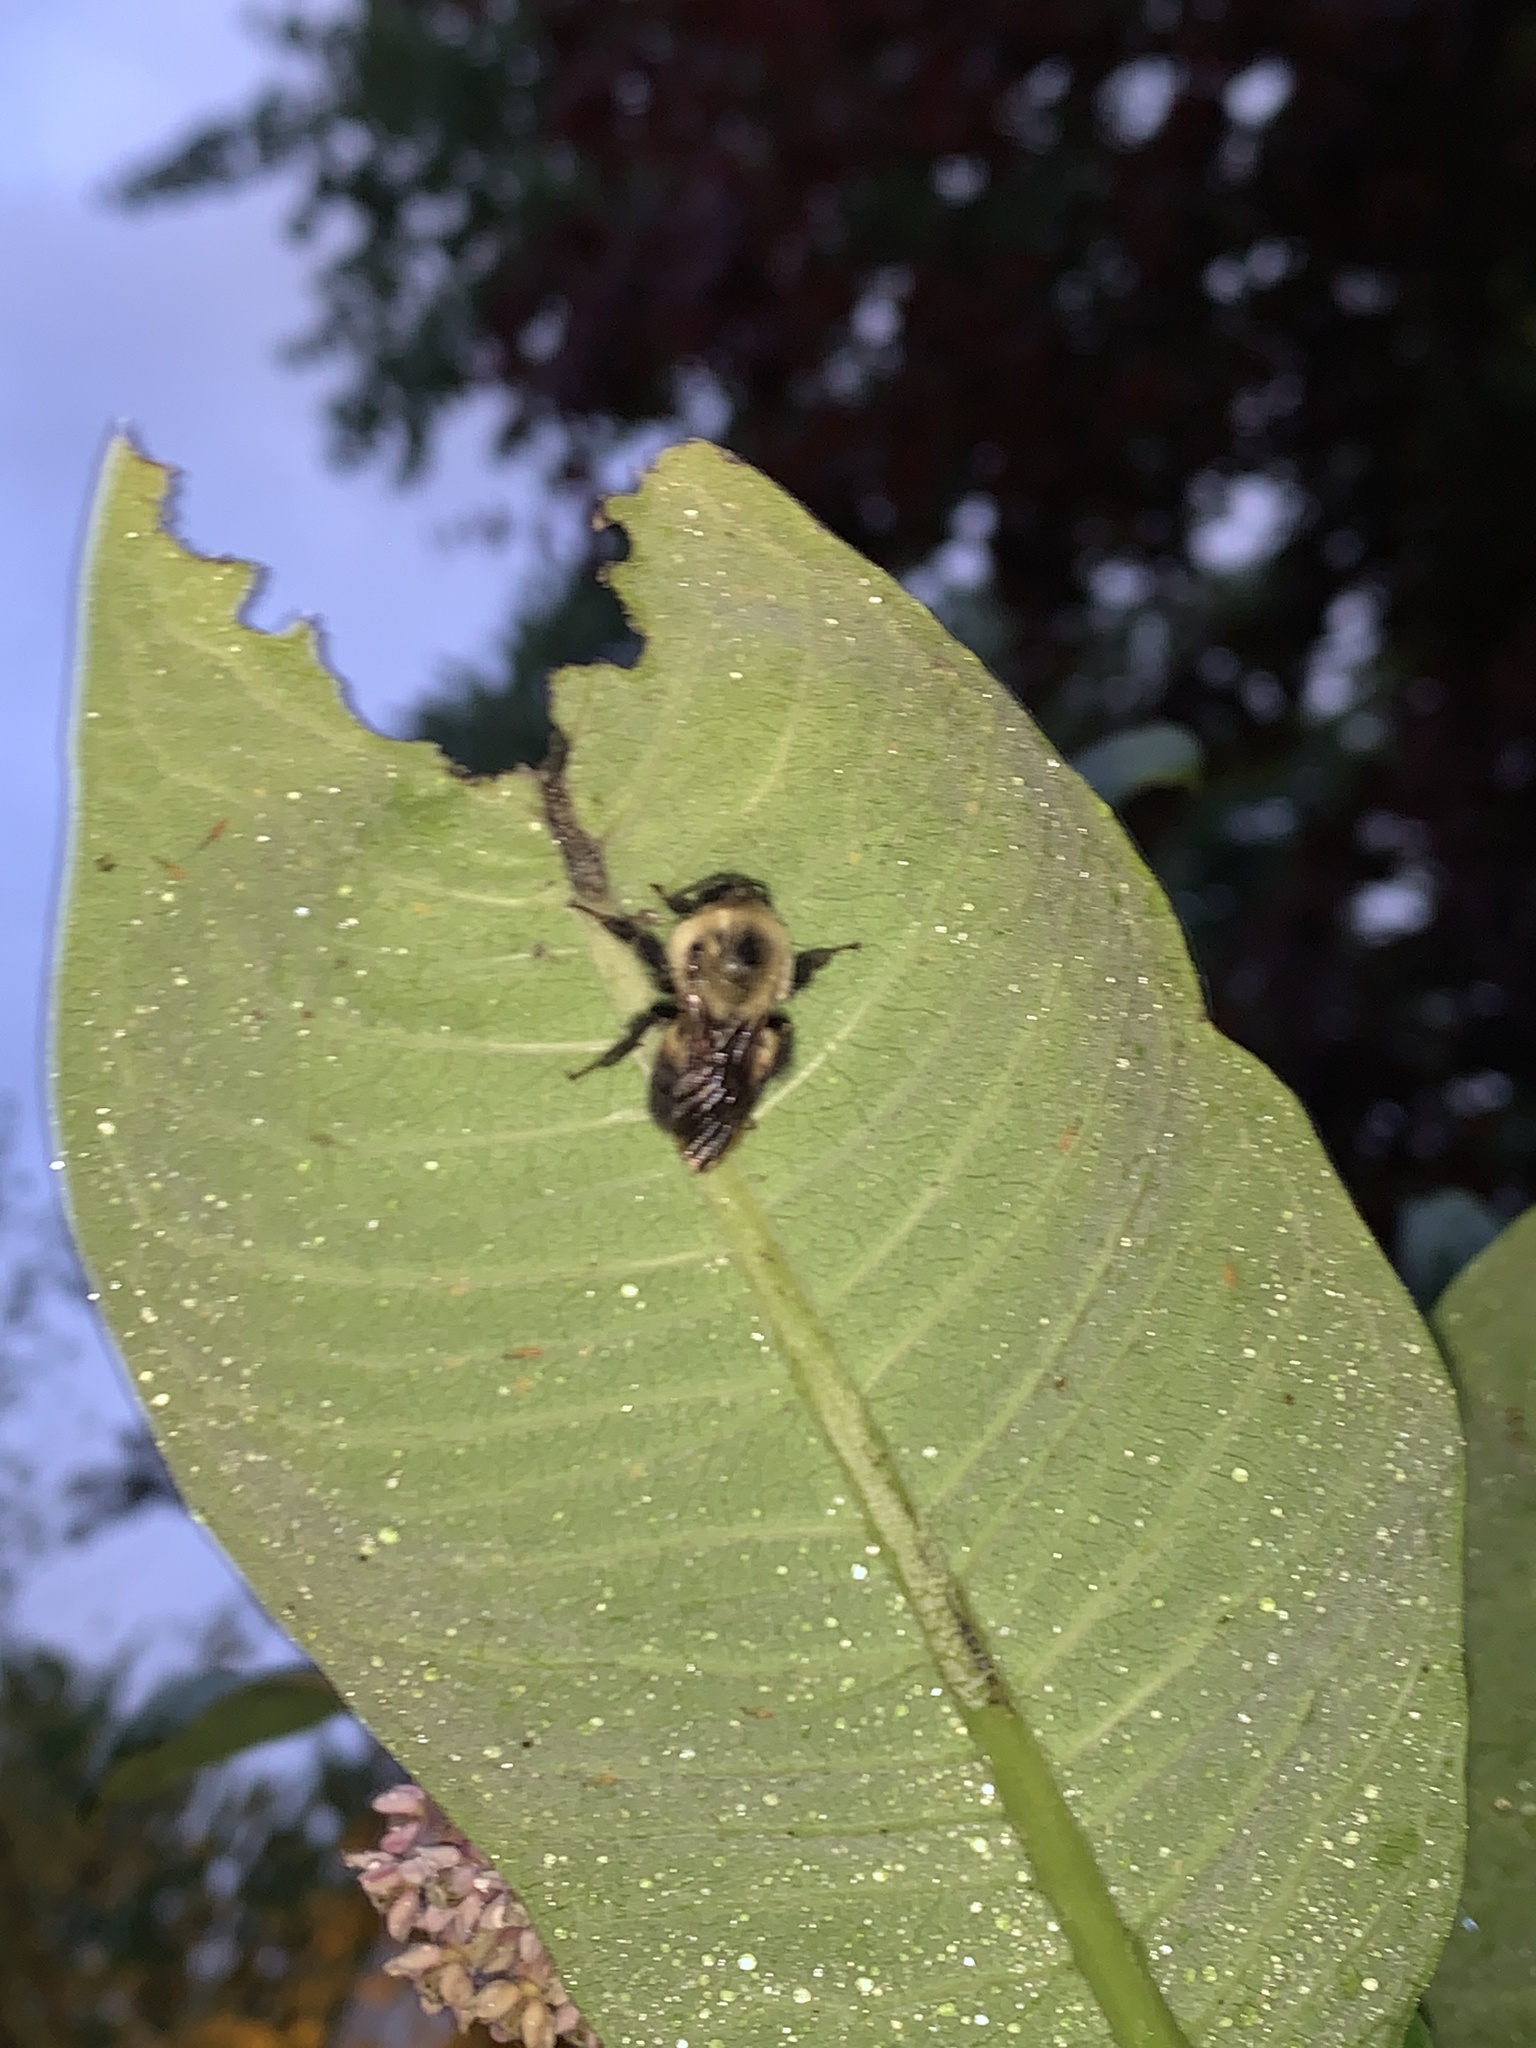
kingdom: Animalia
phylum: Arthropoda
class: Insecta
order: Hymenoptera
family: Apidae
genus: Bombus
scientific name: Bombus griseocollis
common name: Brown-belted bumble bee
